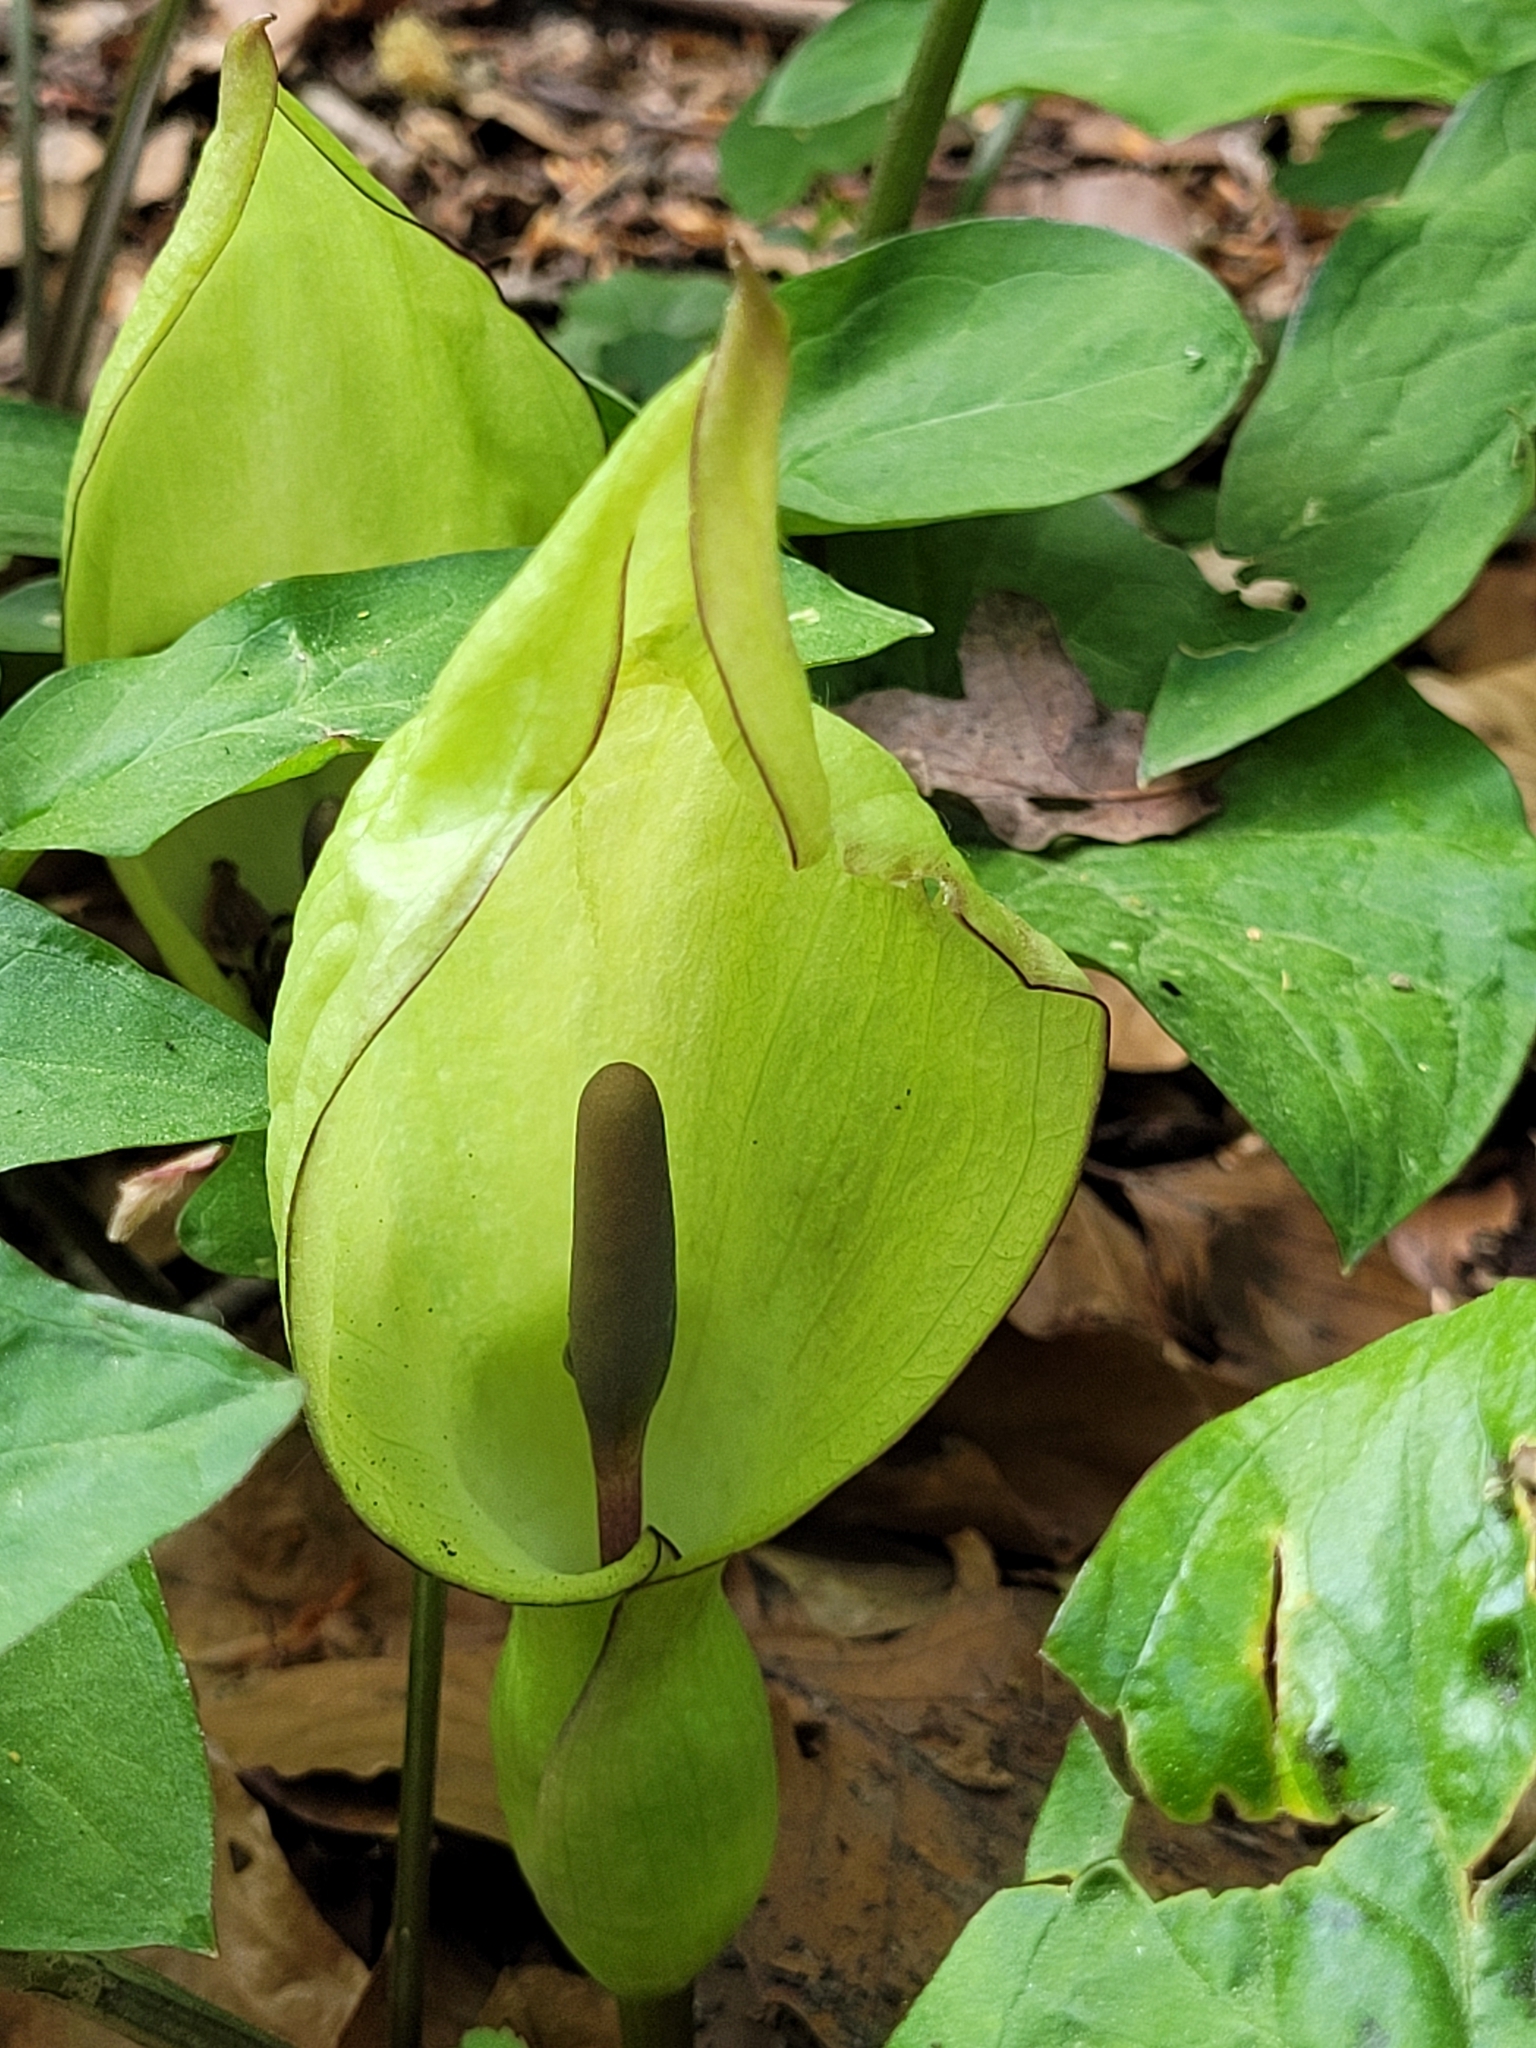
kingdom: Plantae
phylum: Tracheophyta
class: Liliopsida
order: Alismatales
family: Araceae
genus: Arum
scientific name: Arum maculatum
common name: Lords-and-ladies
